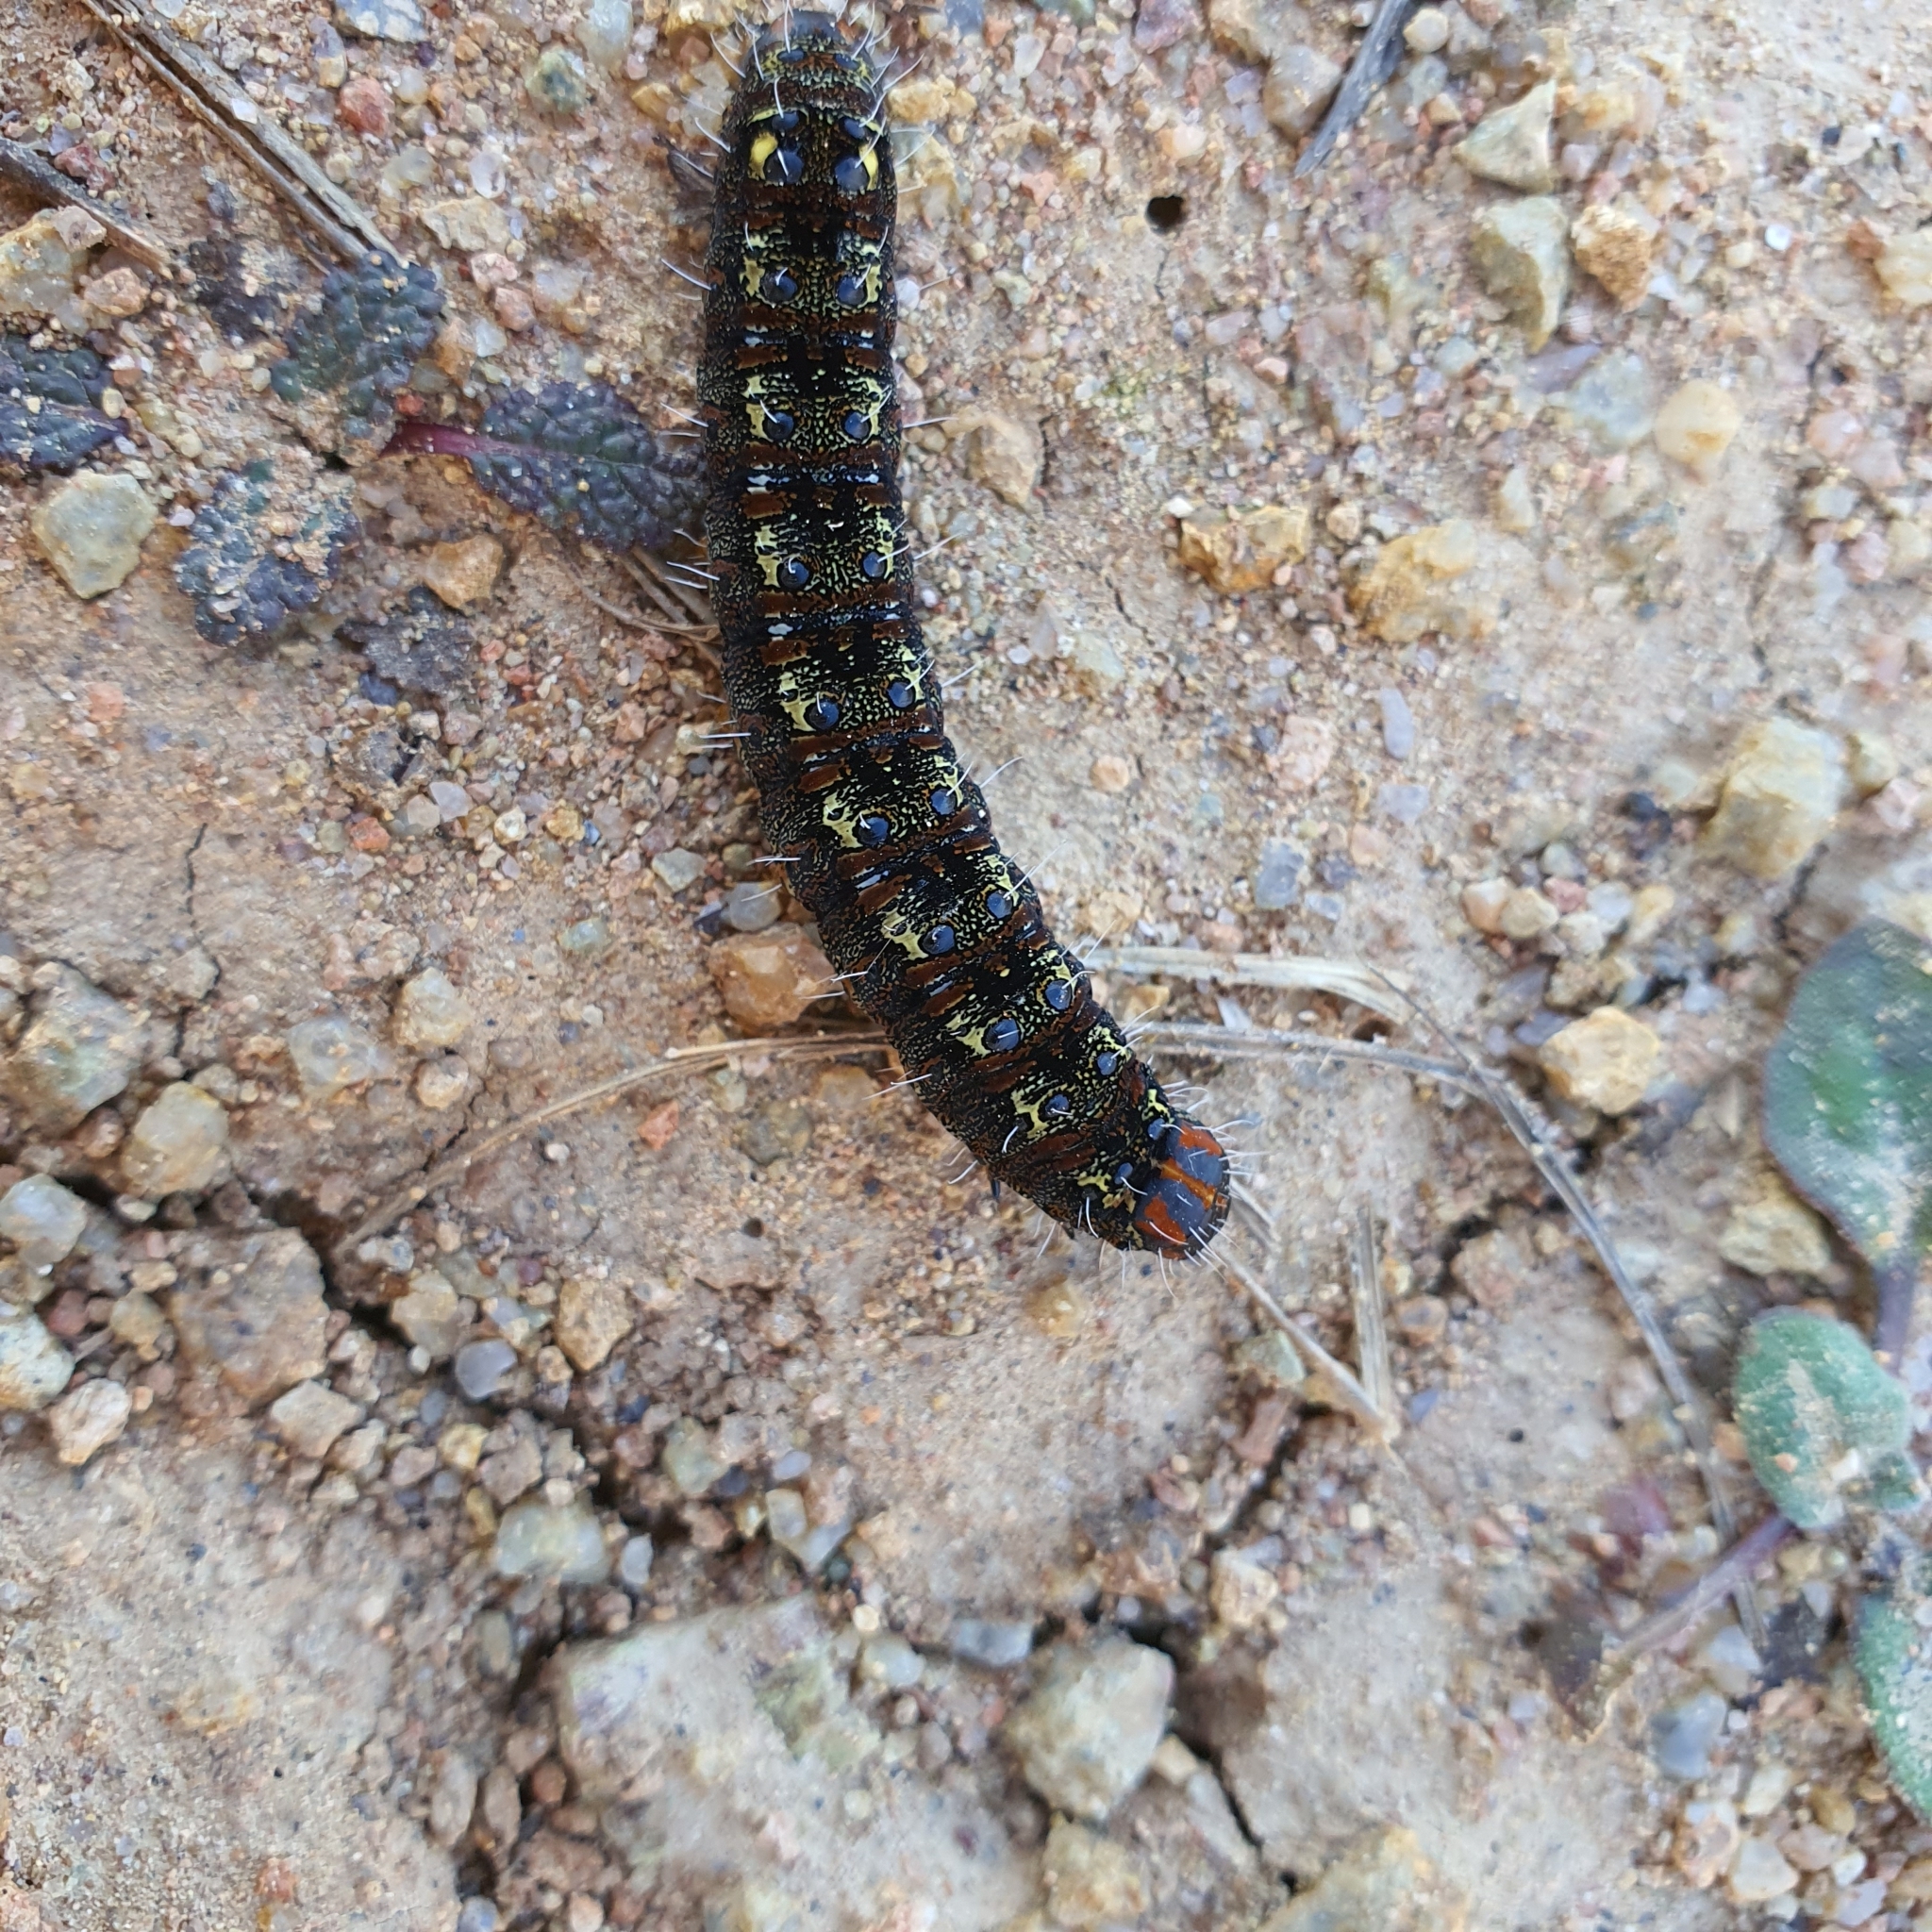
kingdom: Animalia
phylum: Arthropoda
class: Insecta
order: Lepidoptera
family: Noctuidae
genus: Apina
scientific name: Apina callisto
